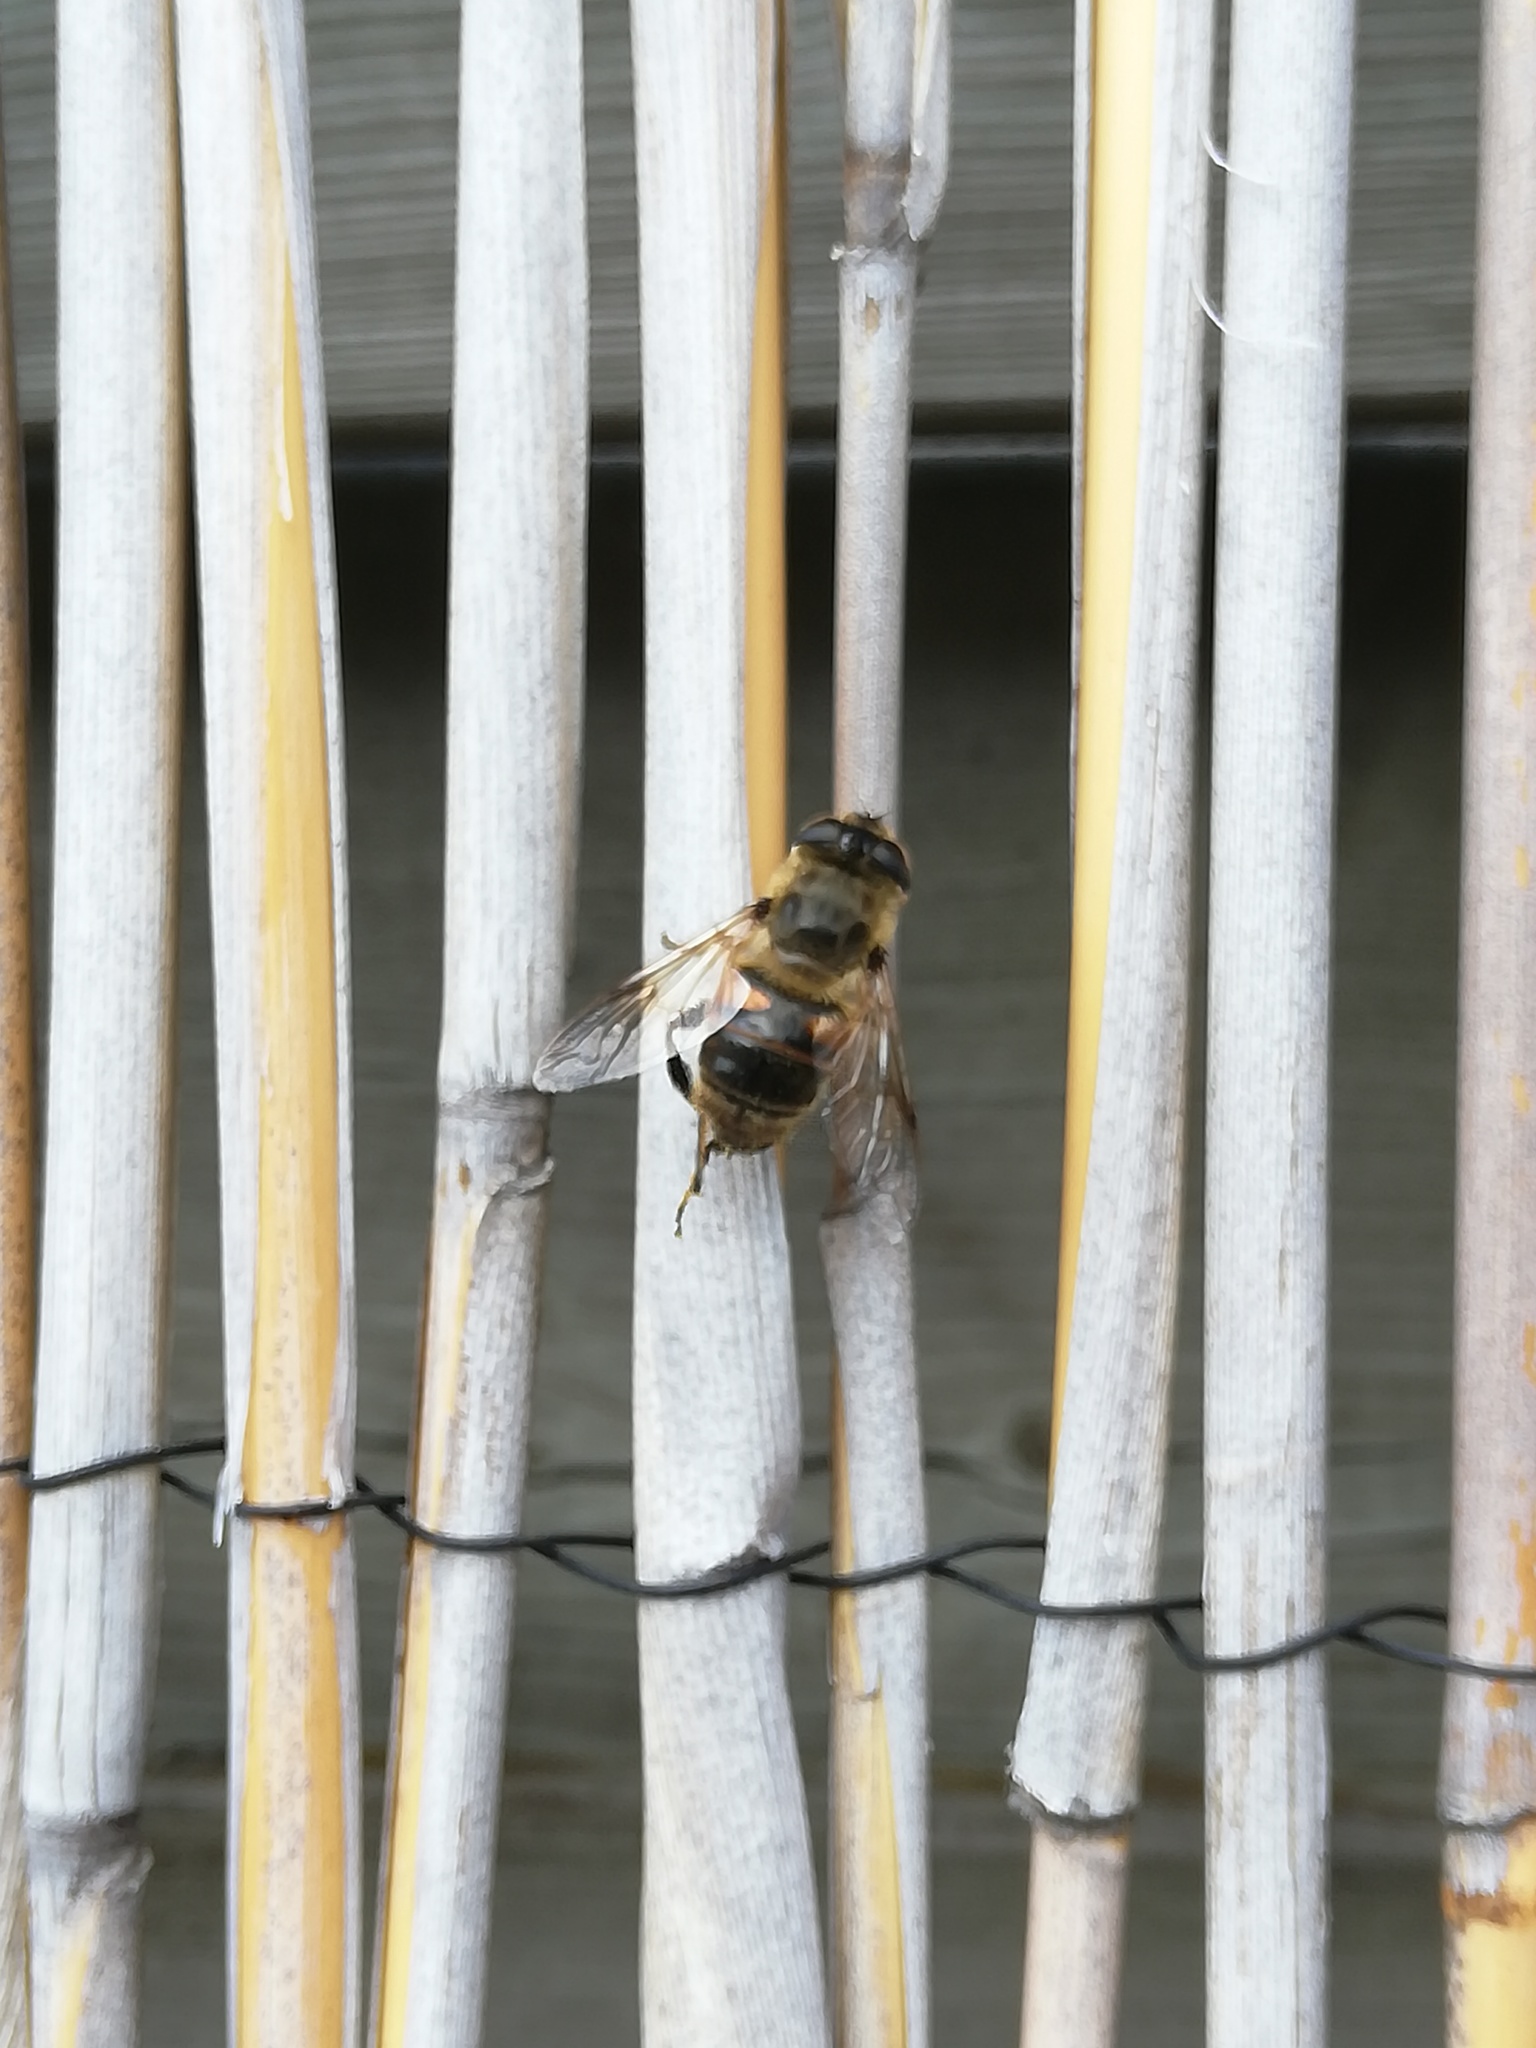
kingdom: Animalia
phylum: Arthropoda
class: Insecta
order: Diptera
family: Syrphidae
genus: Eristalis
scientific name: Eristalis tenax
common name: Drone fly
